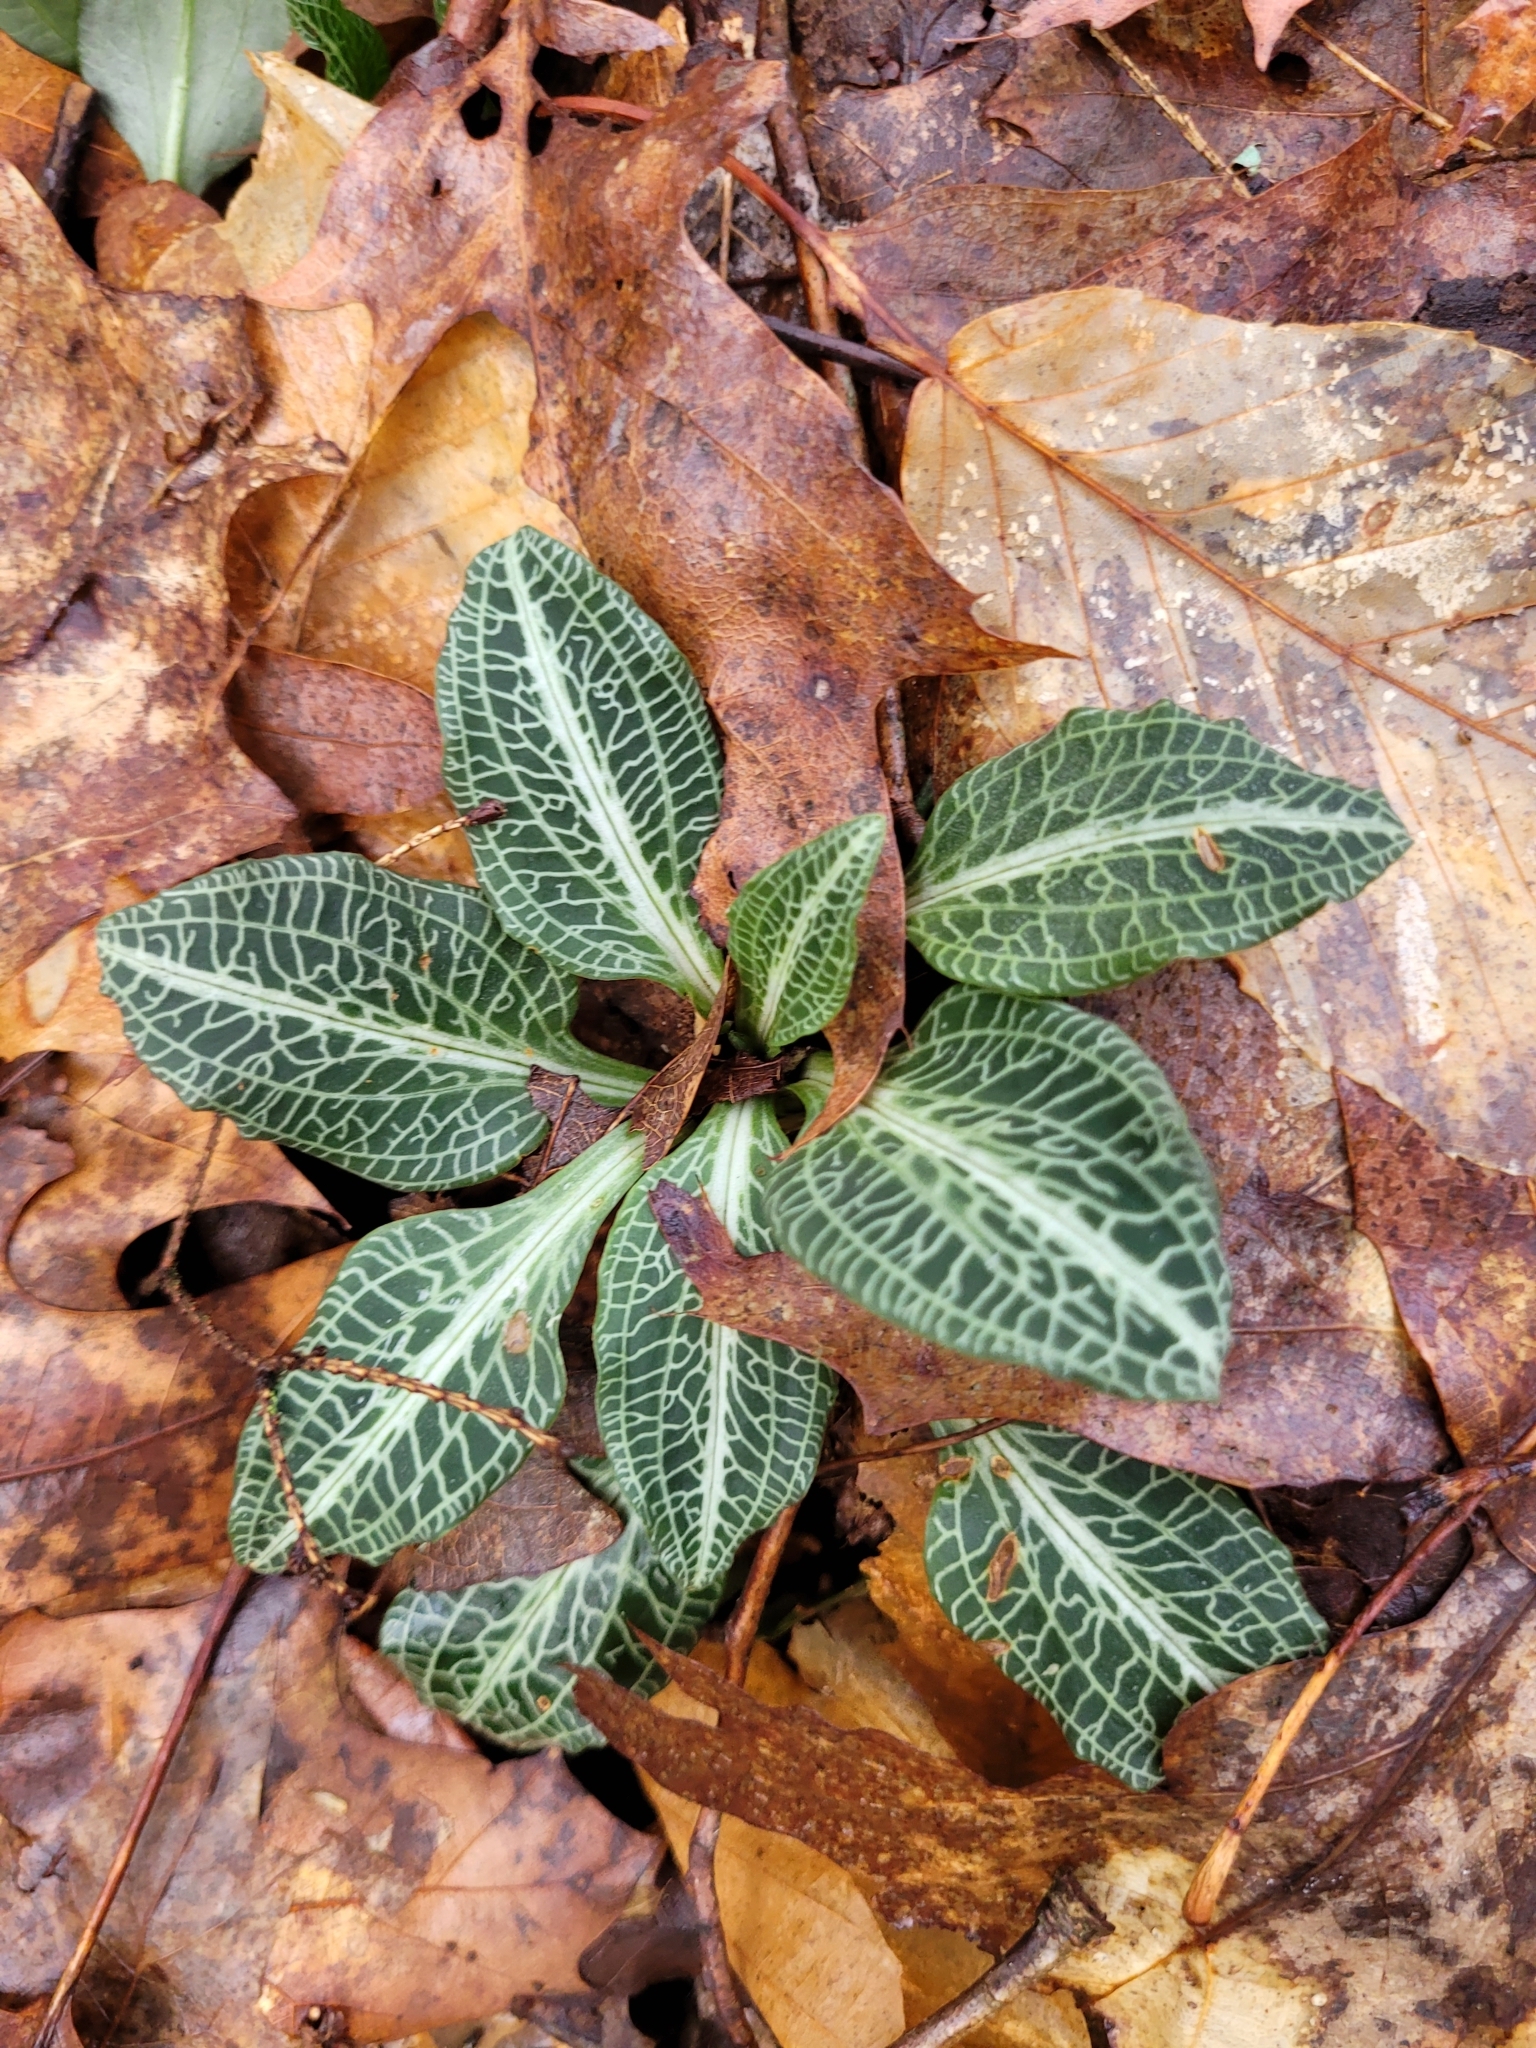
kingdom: Plantae
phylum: Tracheophyta
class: Liliopsida
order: Asparagales
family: Orchidaceae
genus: Goodyera
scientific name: Goodyera pubescens
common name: Downy rattlesnake-plantain
